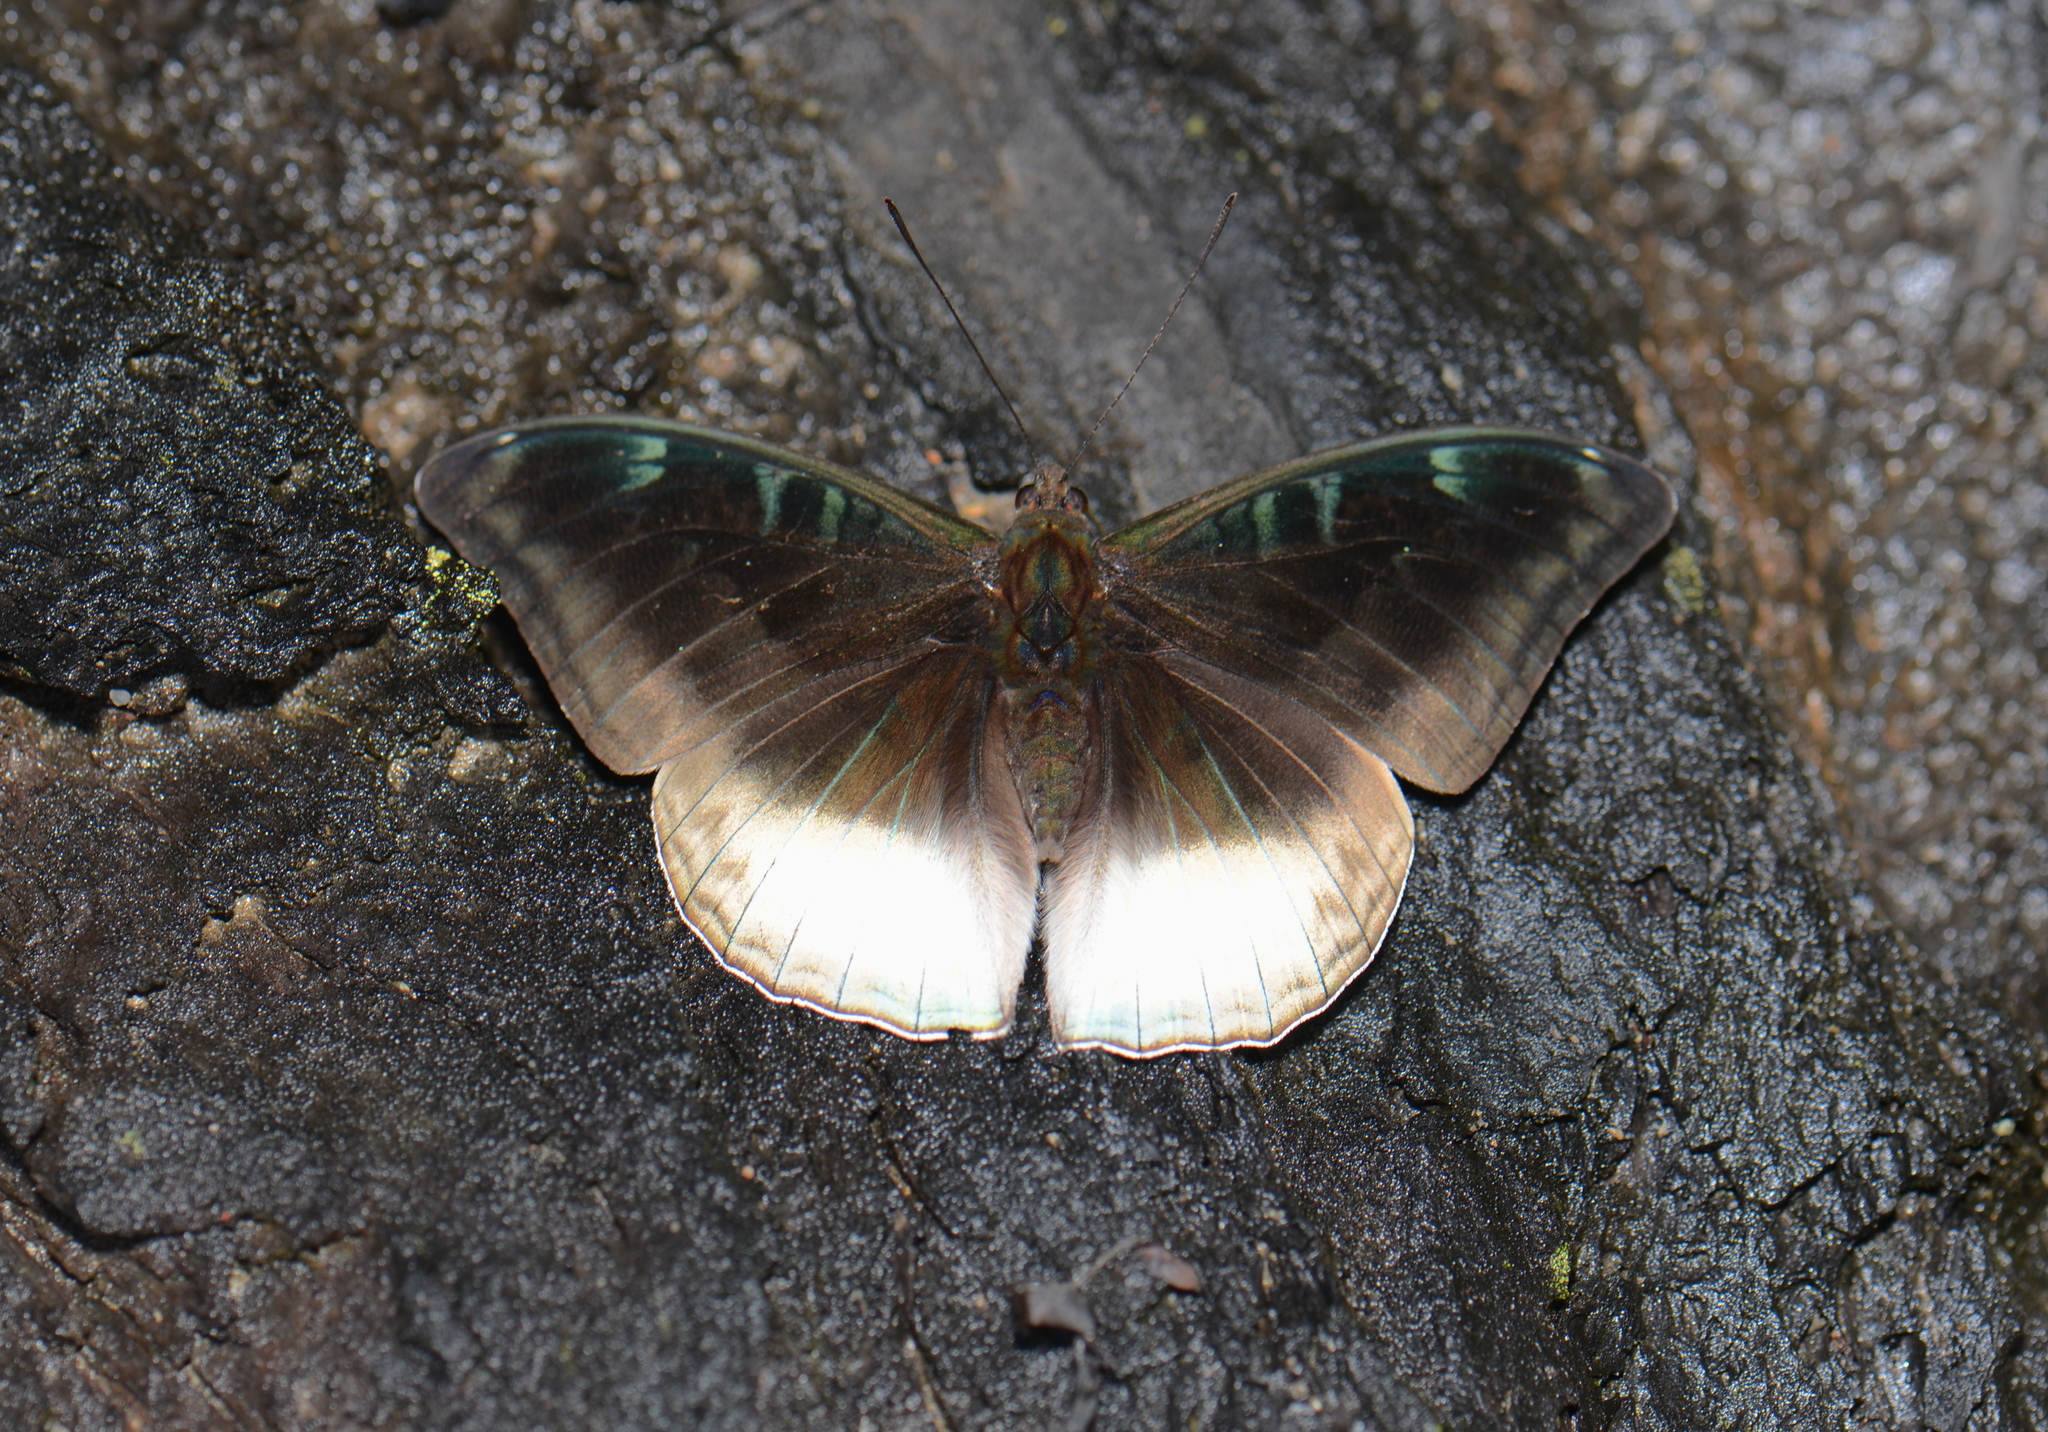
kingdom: Animalia
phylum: Arthropoda
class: Insecta
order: Lepidoptera
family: Nymphalidae
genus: Limenitis
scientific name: Limenitis Auzakia danava
